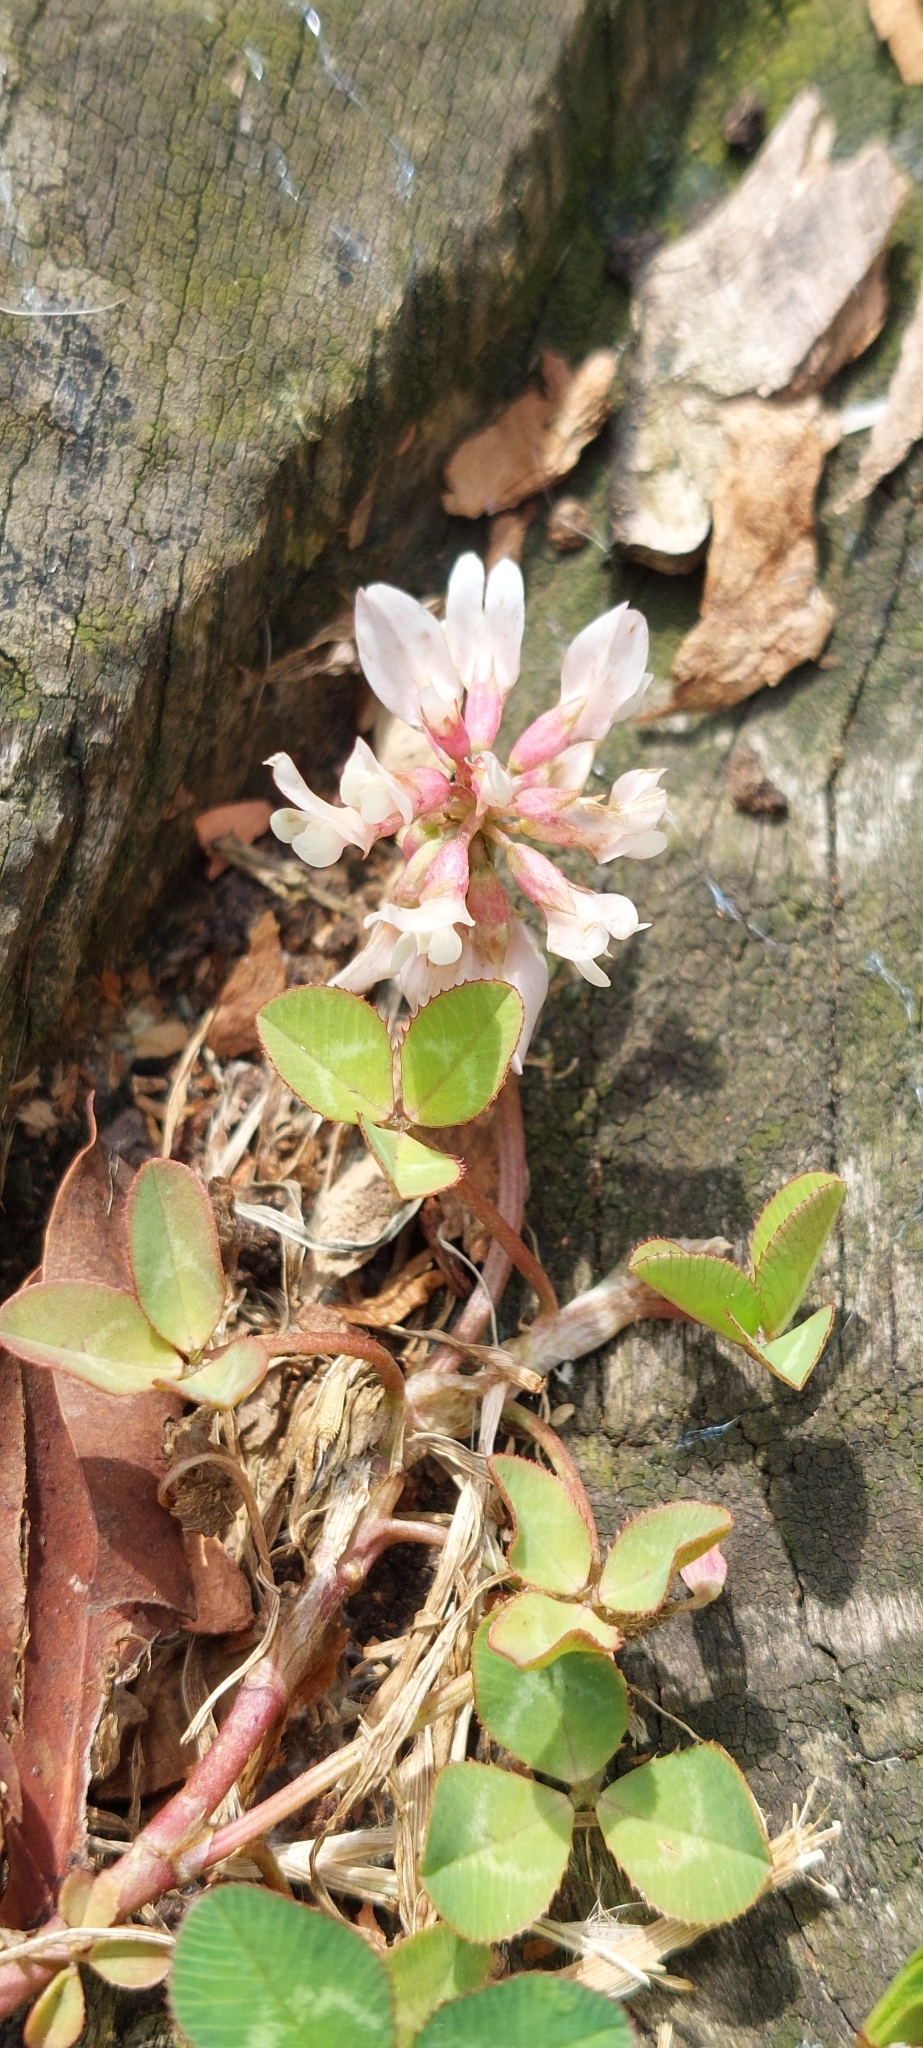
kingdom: Plantae
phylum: Tracheophyta
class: Magnoliopsida
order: Fabales
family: Fabaceae
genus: Trifolium
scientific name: Trifolium repens
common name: White clover
